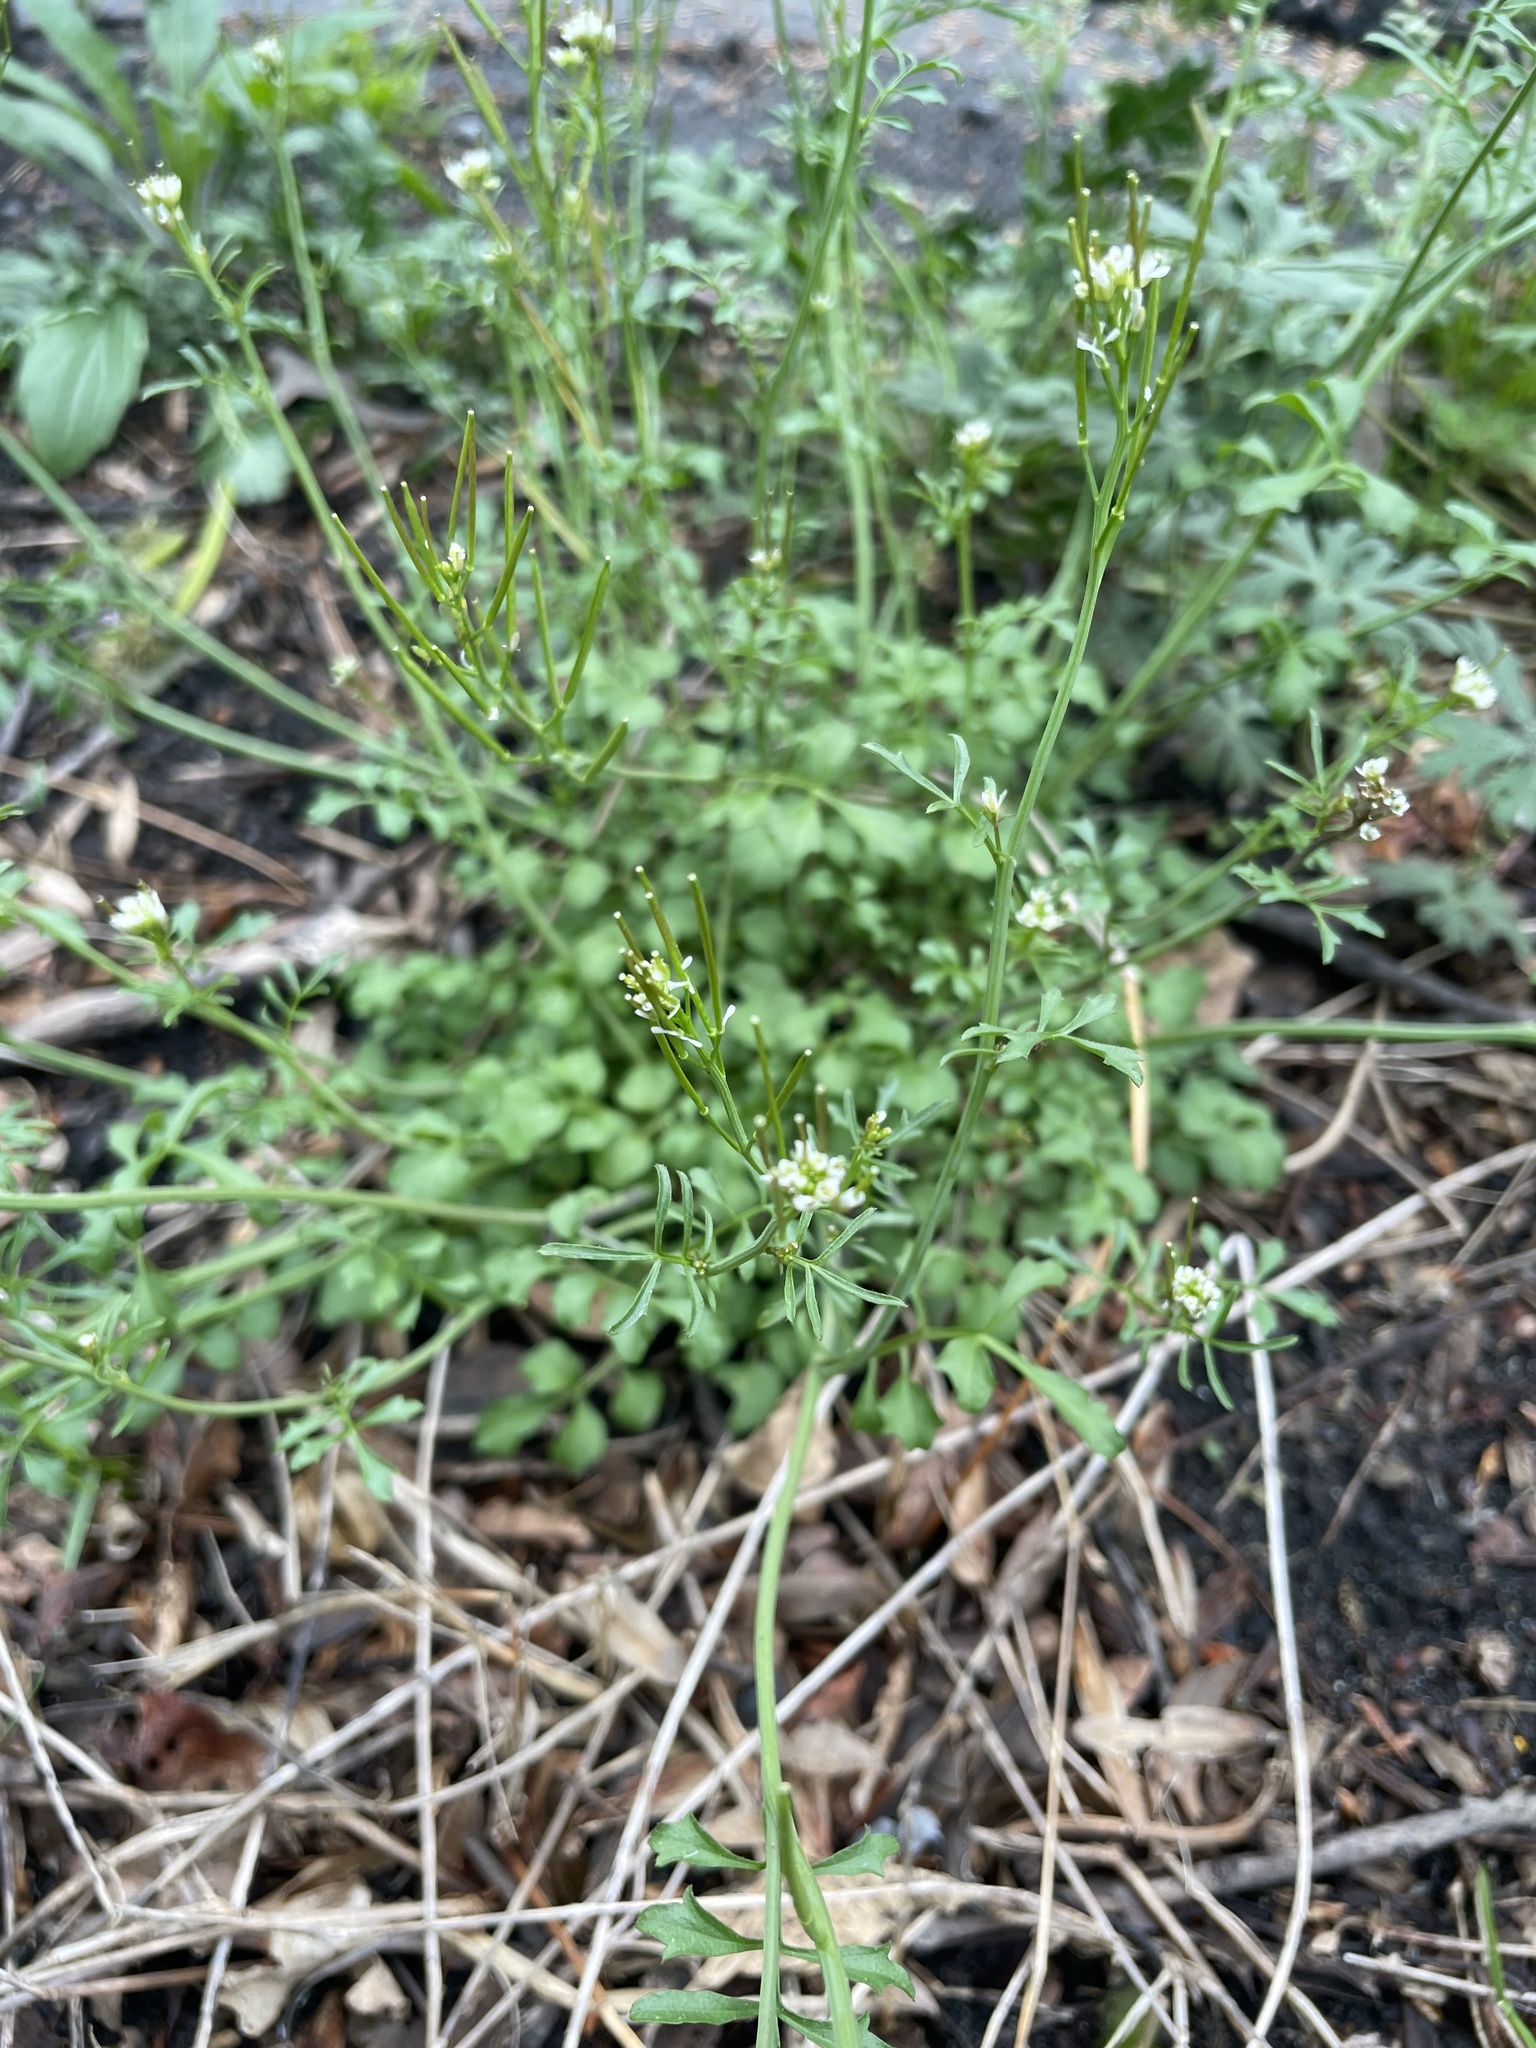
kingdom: Plantae
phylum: Tracheophyta
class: Magnoliopsida
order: Brassicales
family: Brassicaceae
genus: Cardamine
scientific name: Cardamine hirsuta
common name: Hairy bittercress
